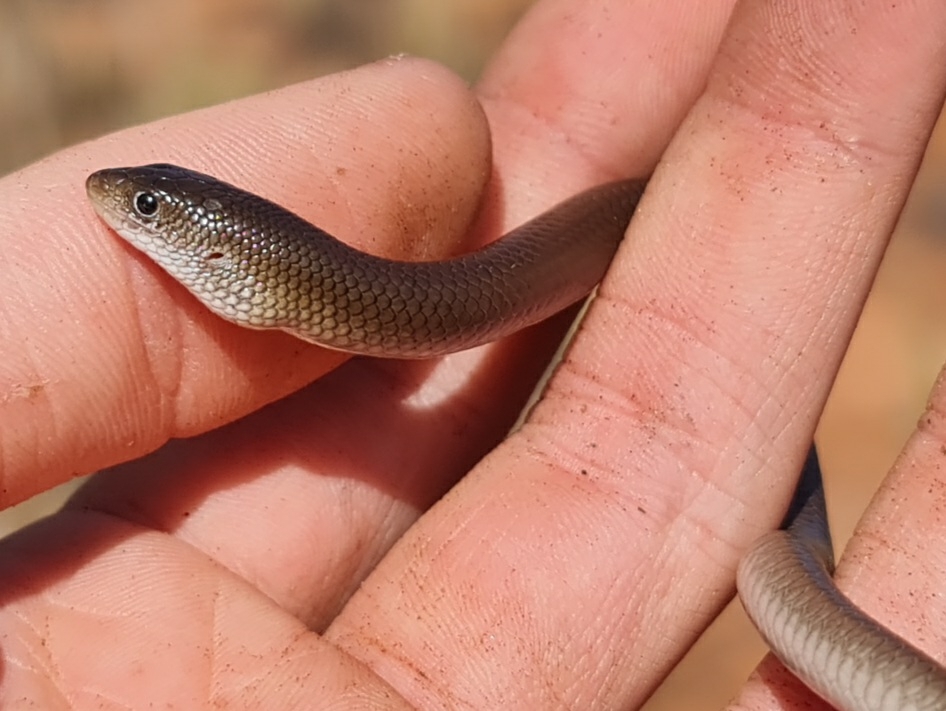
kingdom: Animalia
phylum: Chordata
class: Squamata
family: Pygopodidae
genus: Delma
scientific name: Delma butleri
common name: Butler's legless lizard
